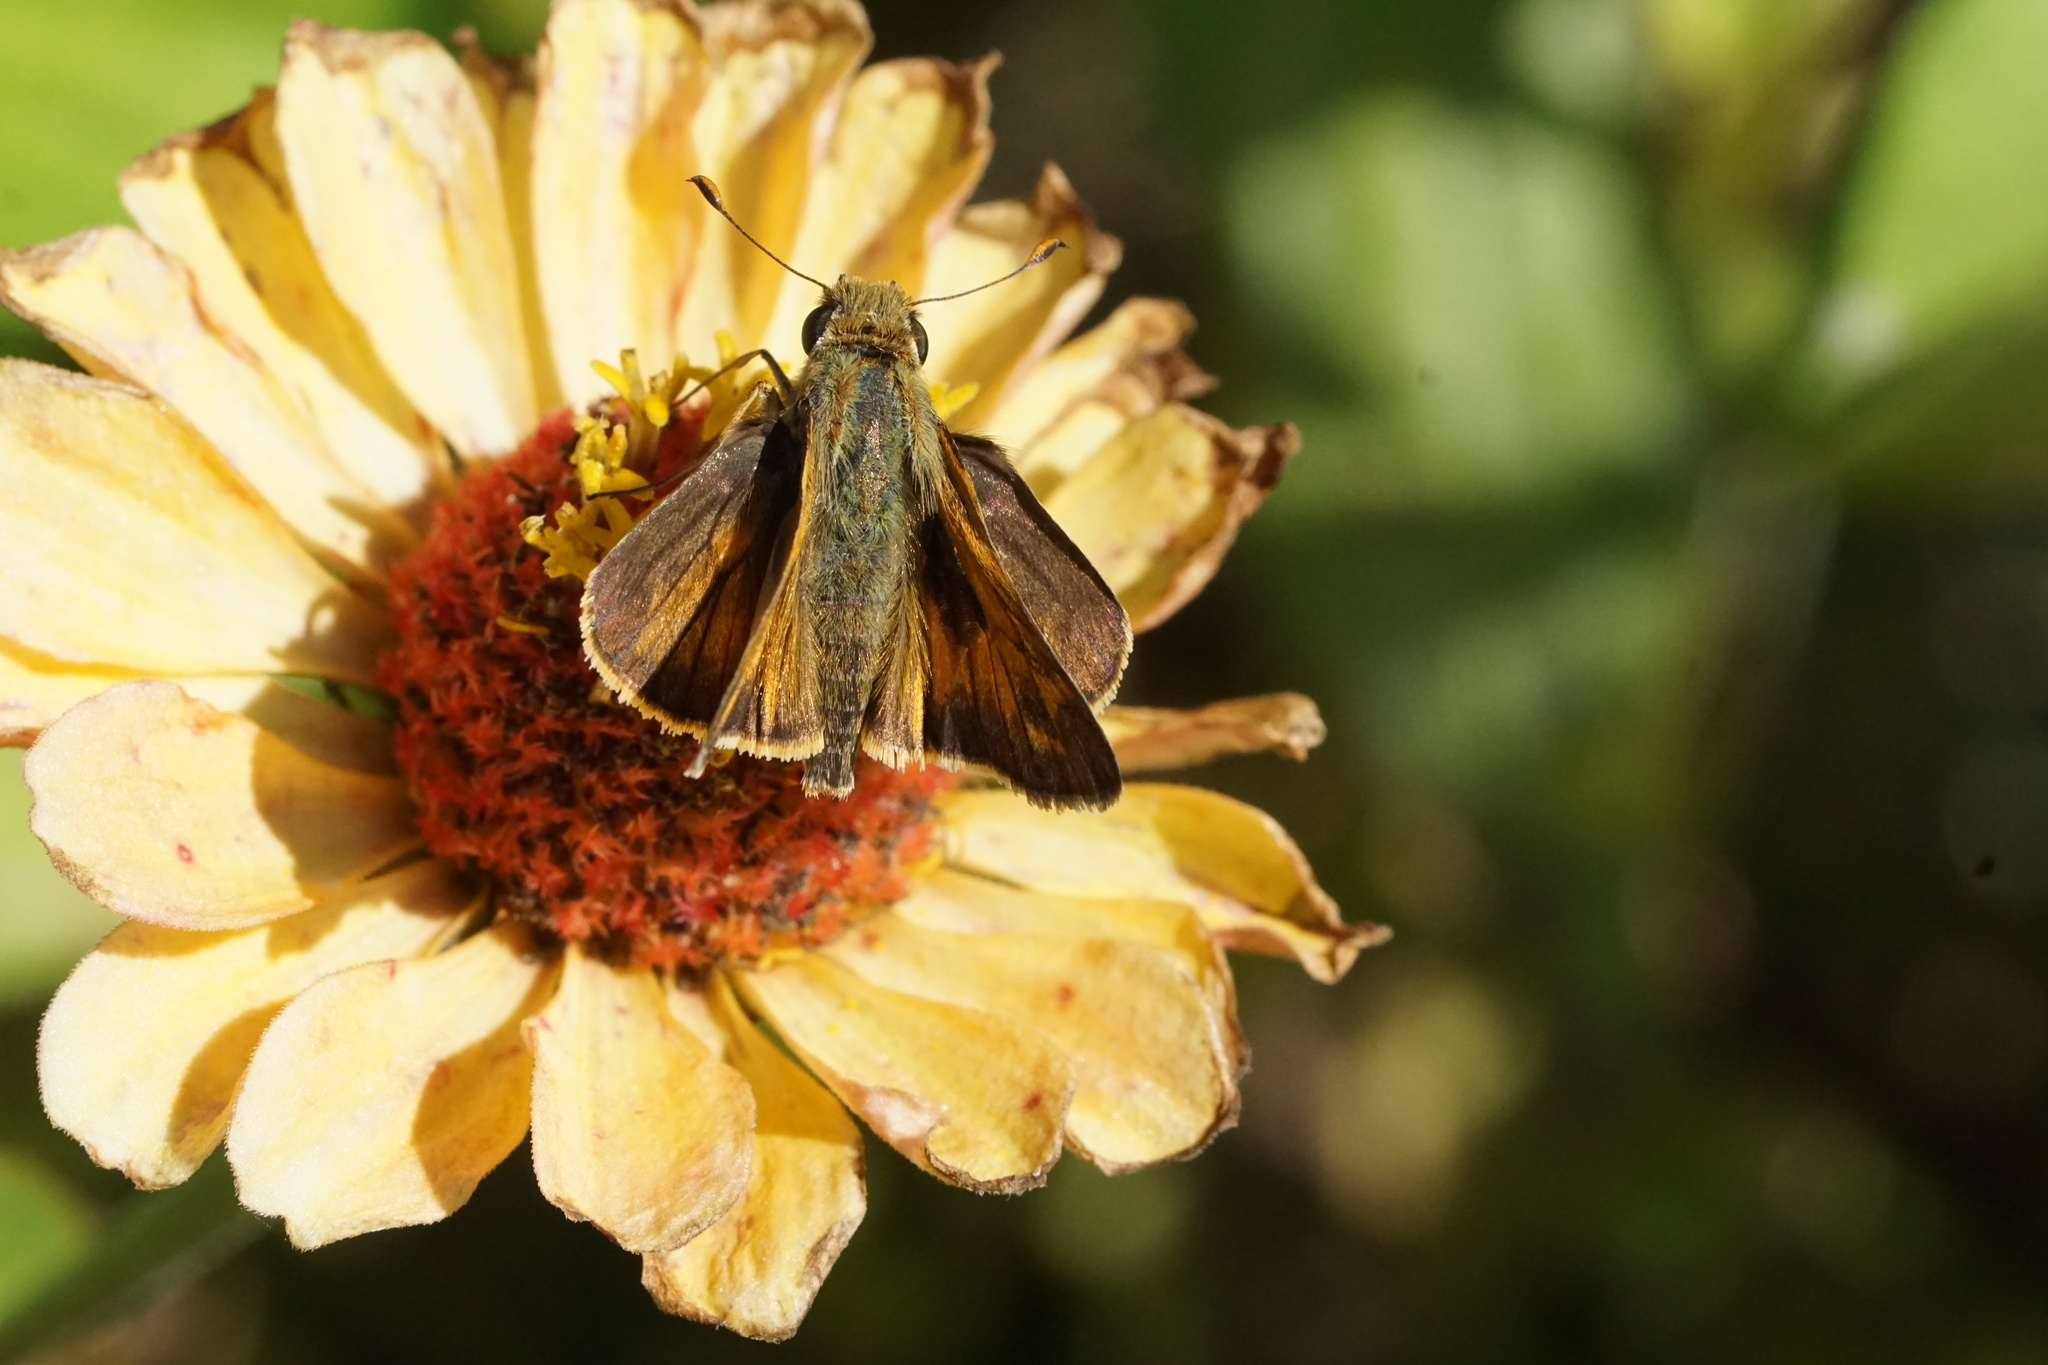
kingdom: Animalia
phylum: Arthropoda
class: Insecta
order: Lepidoptera
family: Hesperiidae
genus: Atalopedes
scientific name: Atalopedes
